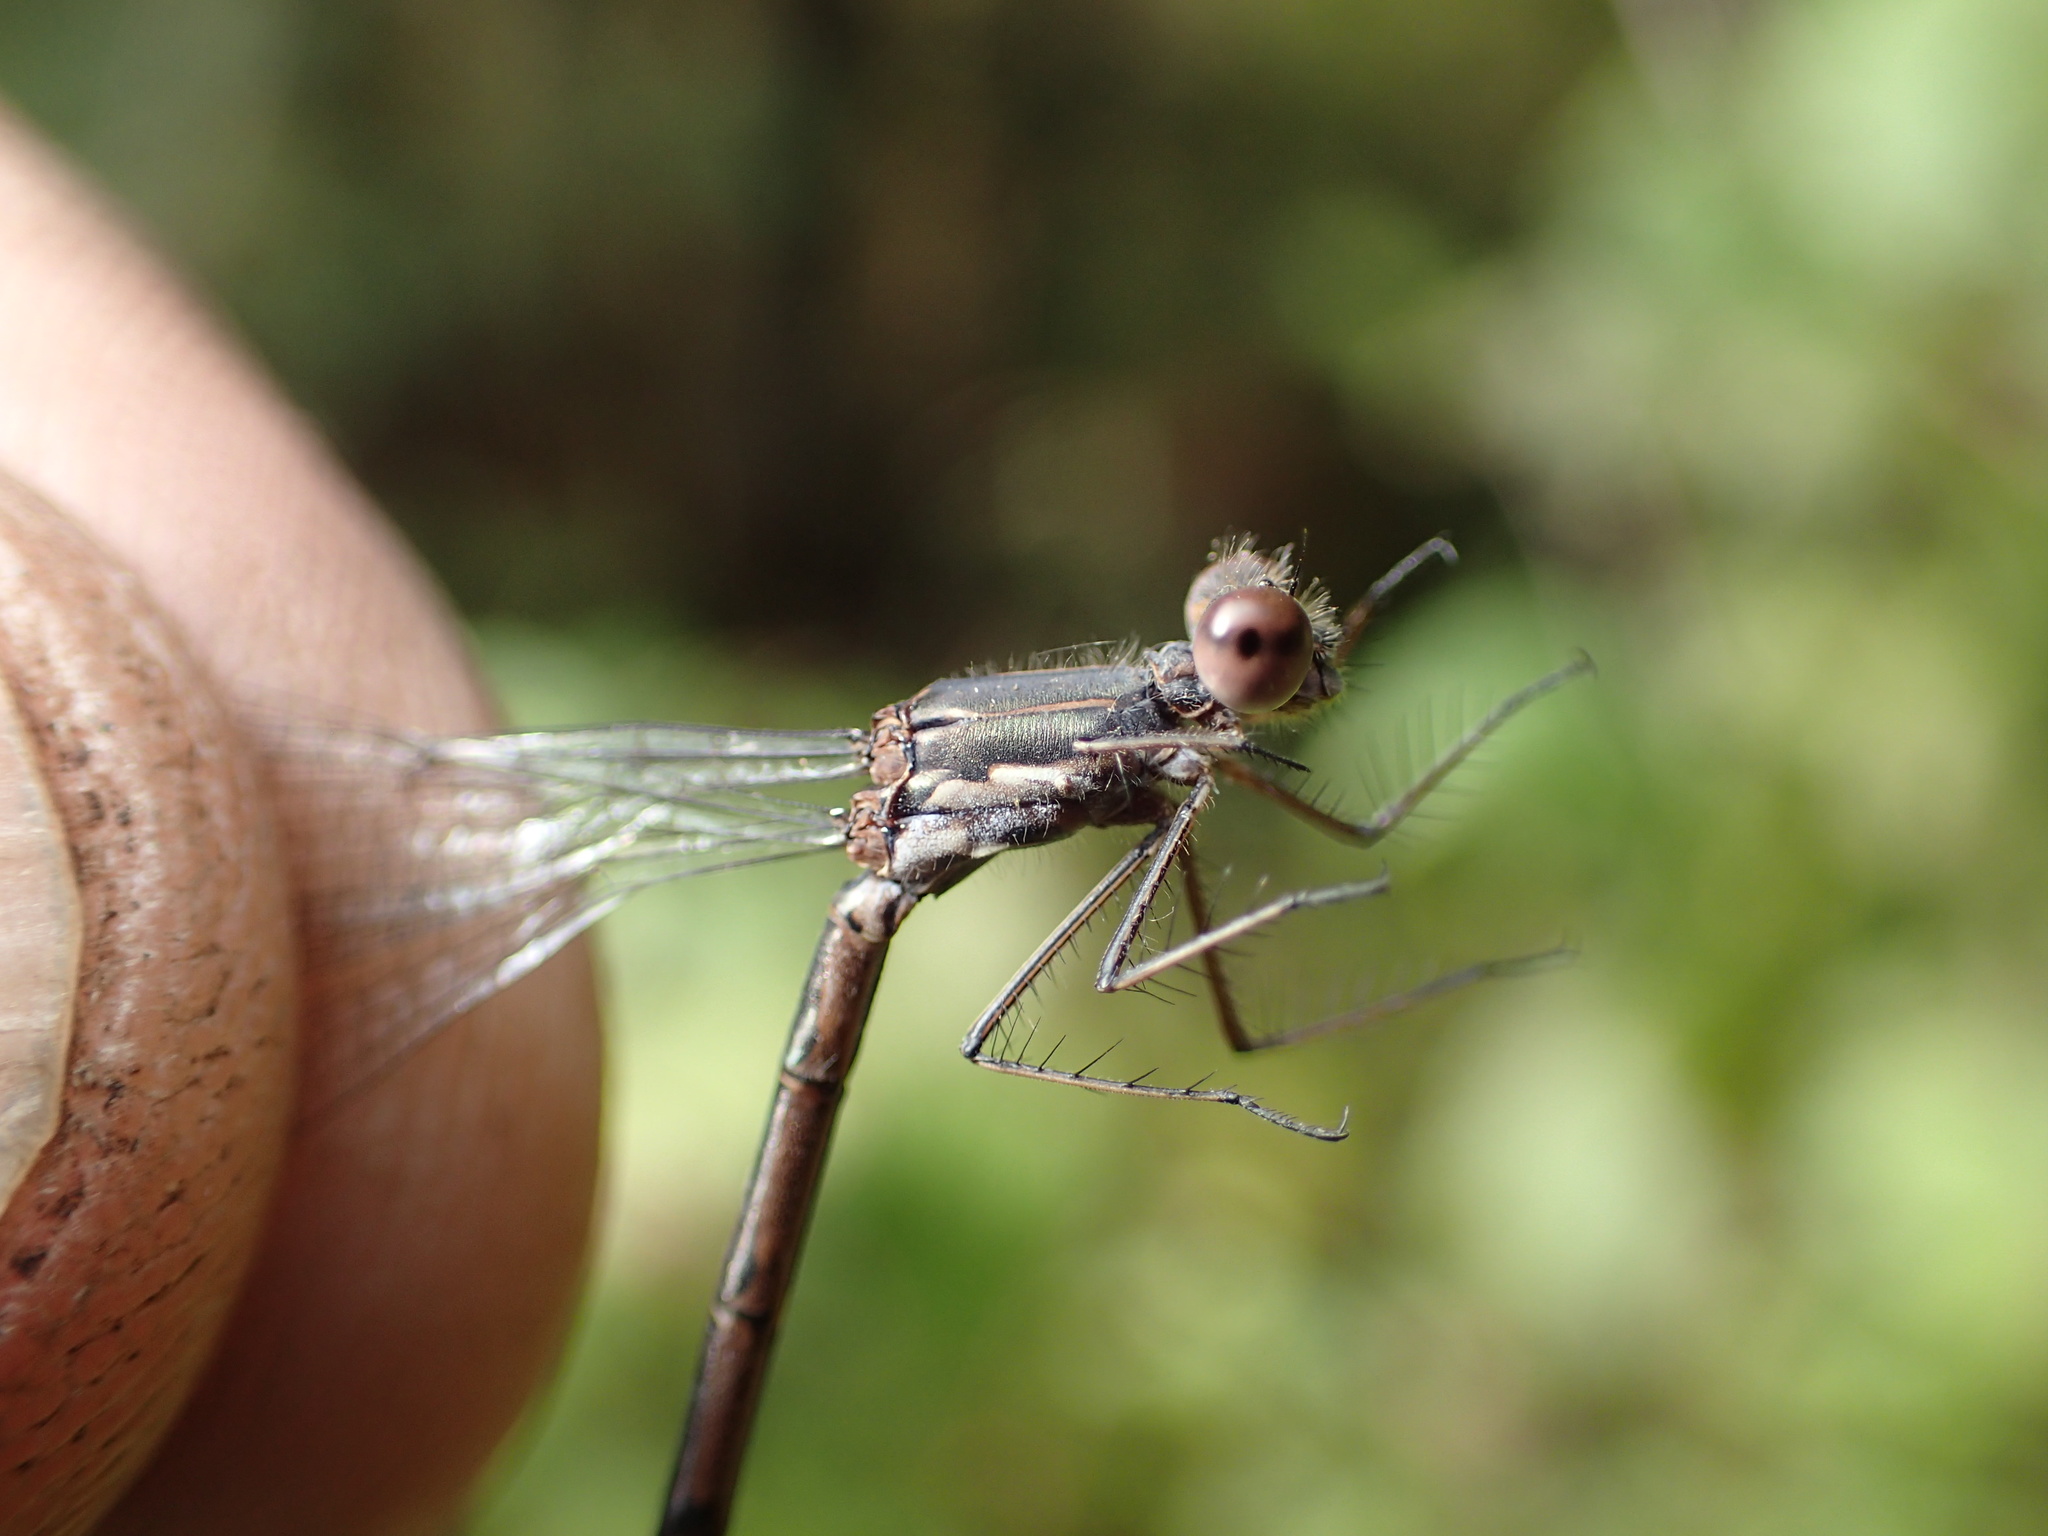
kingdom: Animalia
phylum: Arthropoda
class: Insecta
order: Odonata
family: Lestidae
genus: Lestes
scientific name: Lestes congener
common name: Spotted spreadwing
